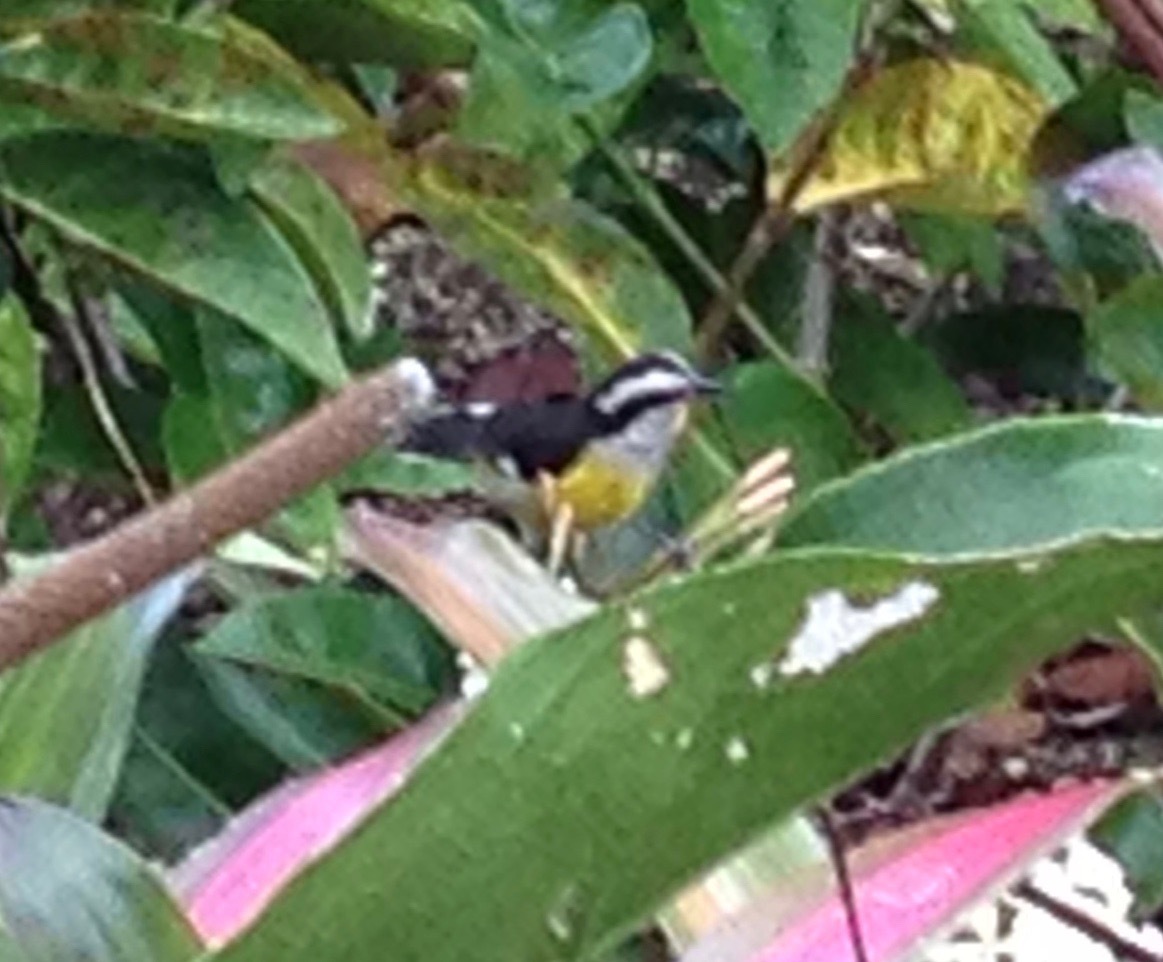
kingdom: Animalia
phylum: Chordata
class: Aves
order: Passeriformes
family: Thraupidae
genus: Coereba
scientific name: Coereba flaveola
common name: Bananaquit
